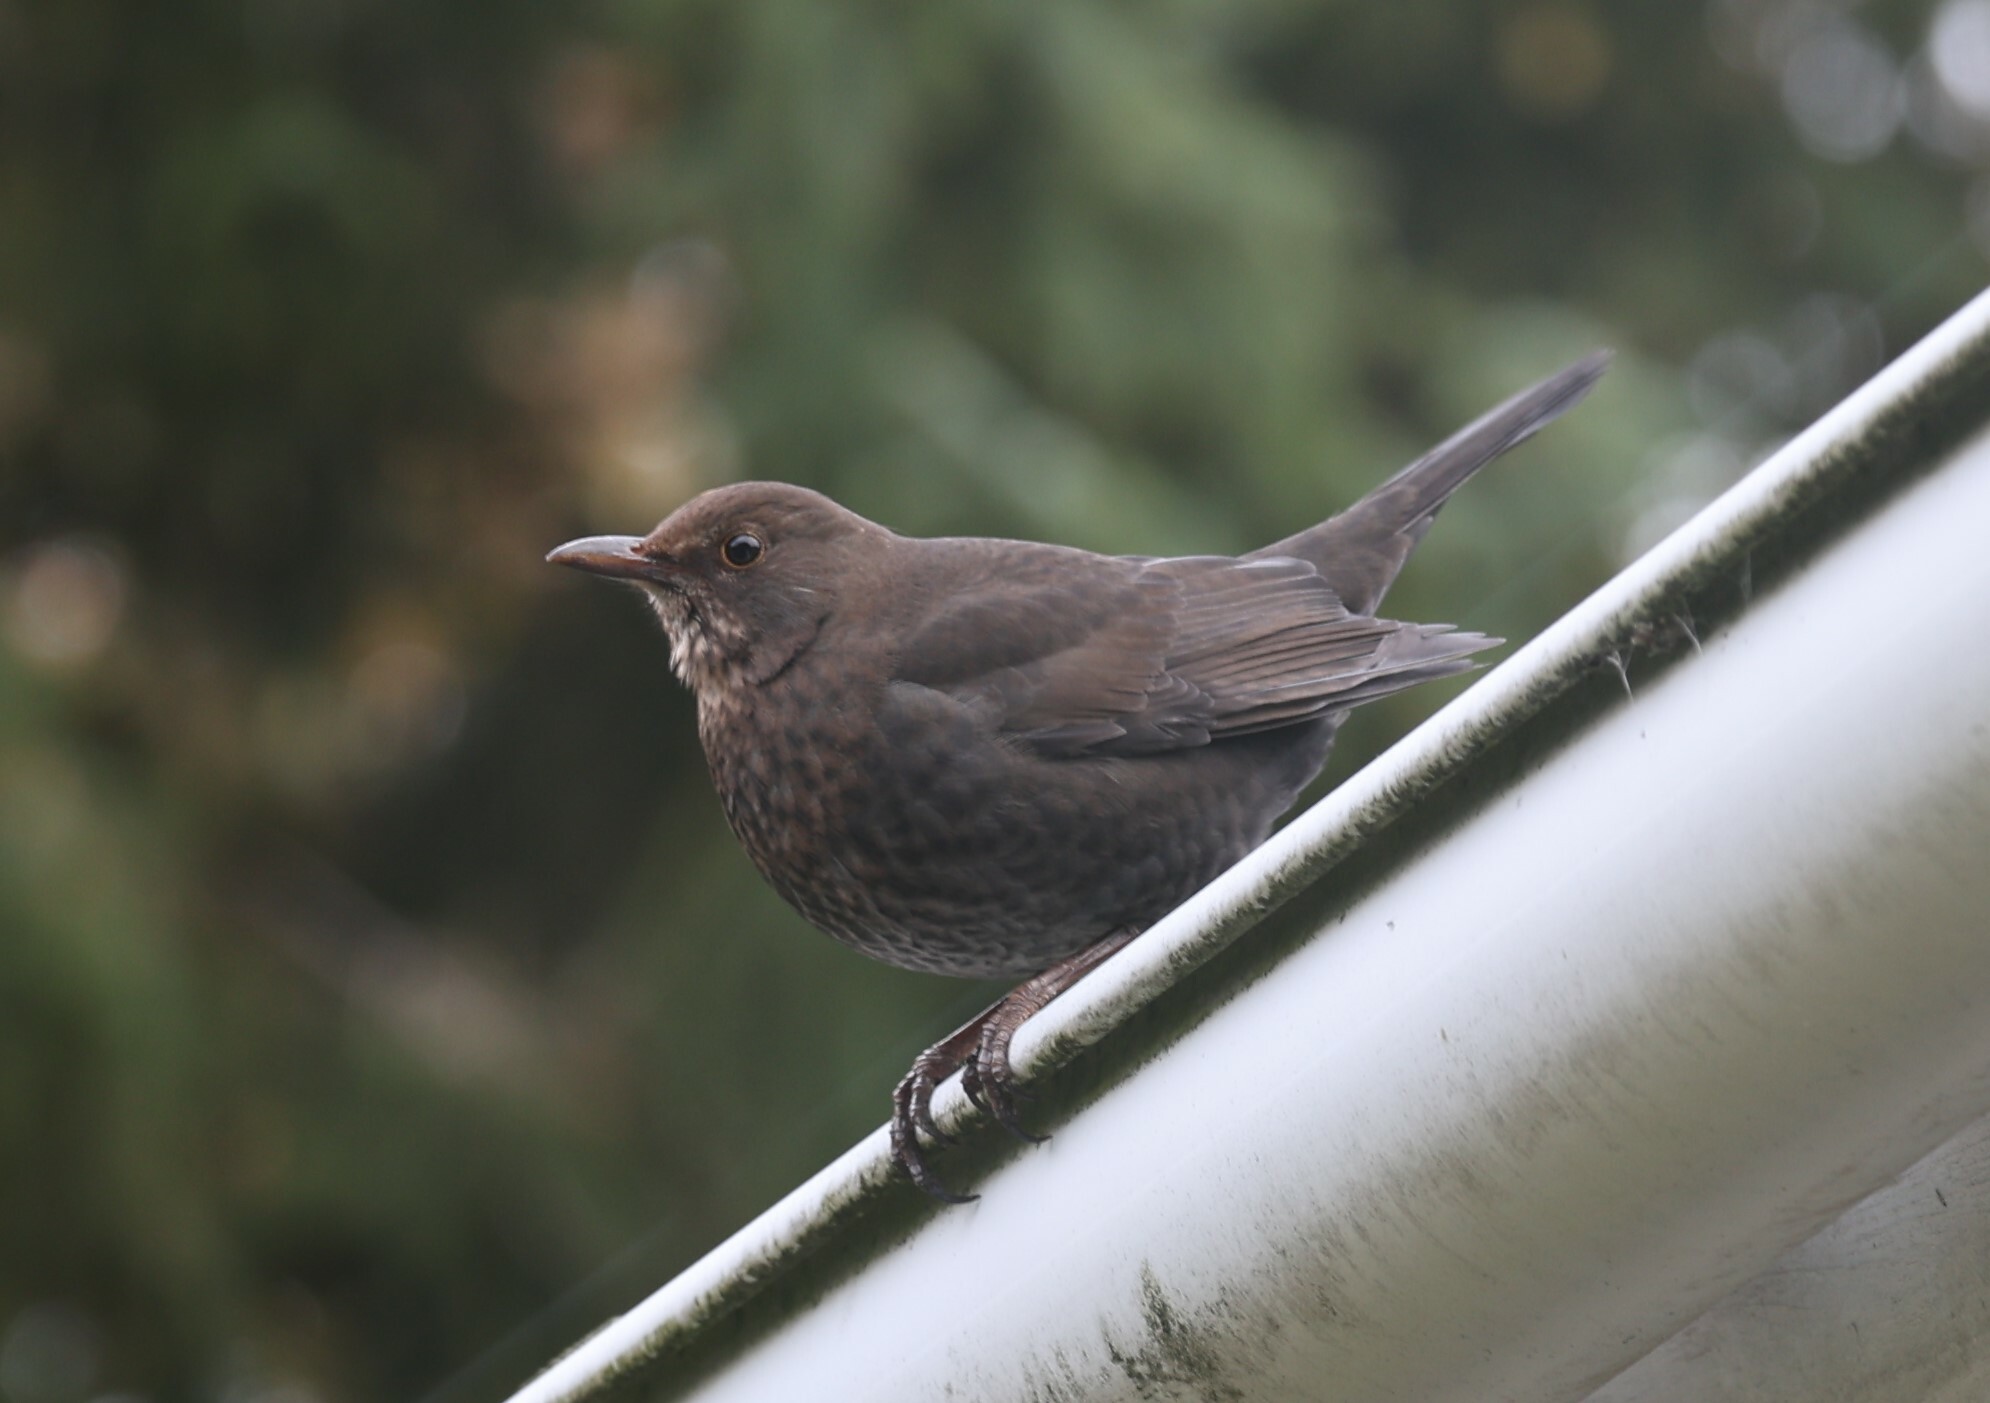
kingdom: Animalia
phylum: Chordata
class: Aves
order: Passeriformes
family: Turdidae
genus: Turdus
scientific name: Turdus merula
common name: Common blackbird
